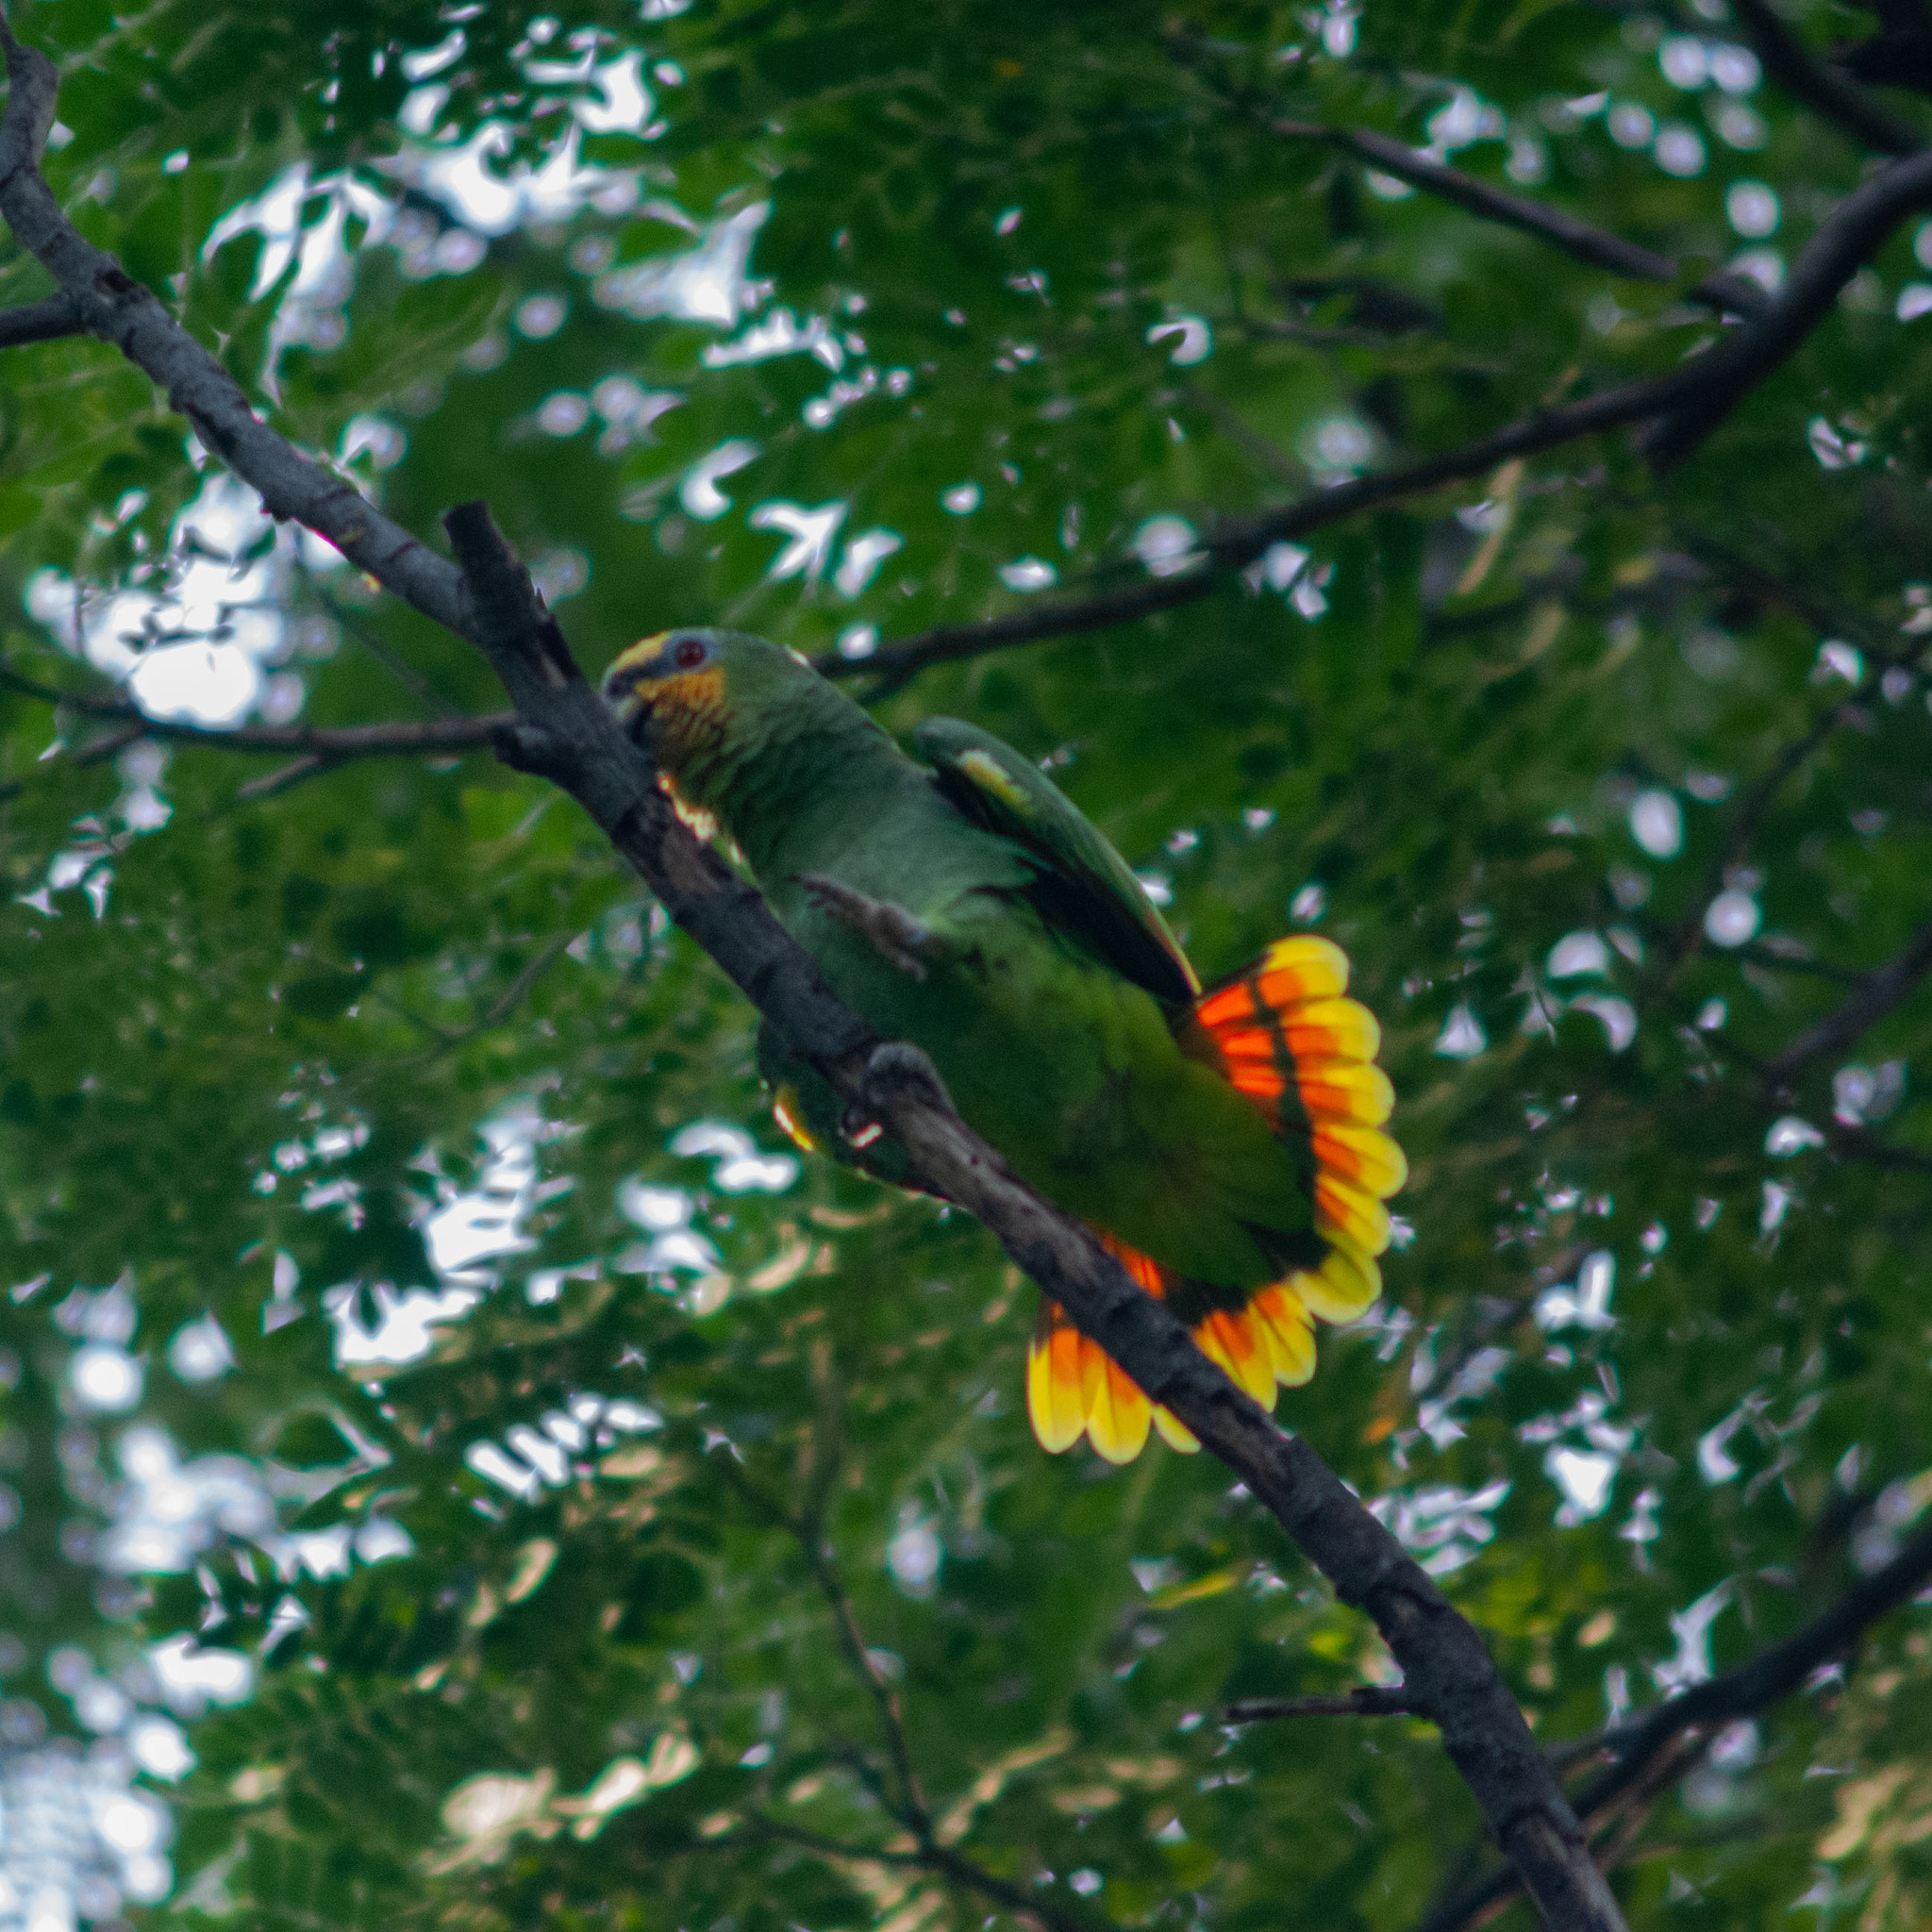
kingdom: Animalia
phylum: Chordata
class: Aves
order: Psittaciformes
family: Psittacidae
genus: Amazona
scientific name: Amazona amazonica
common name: Orange-winged amazon
